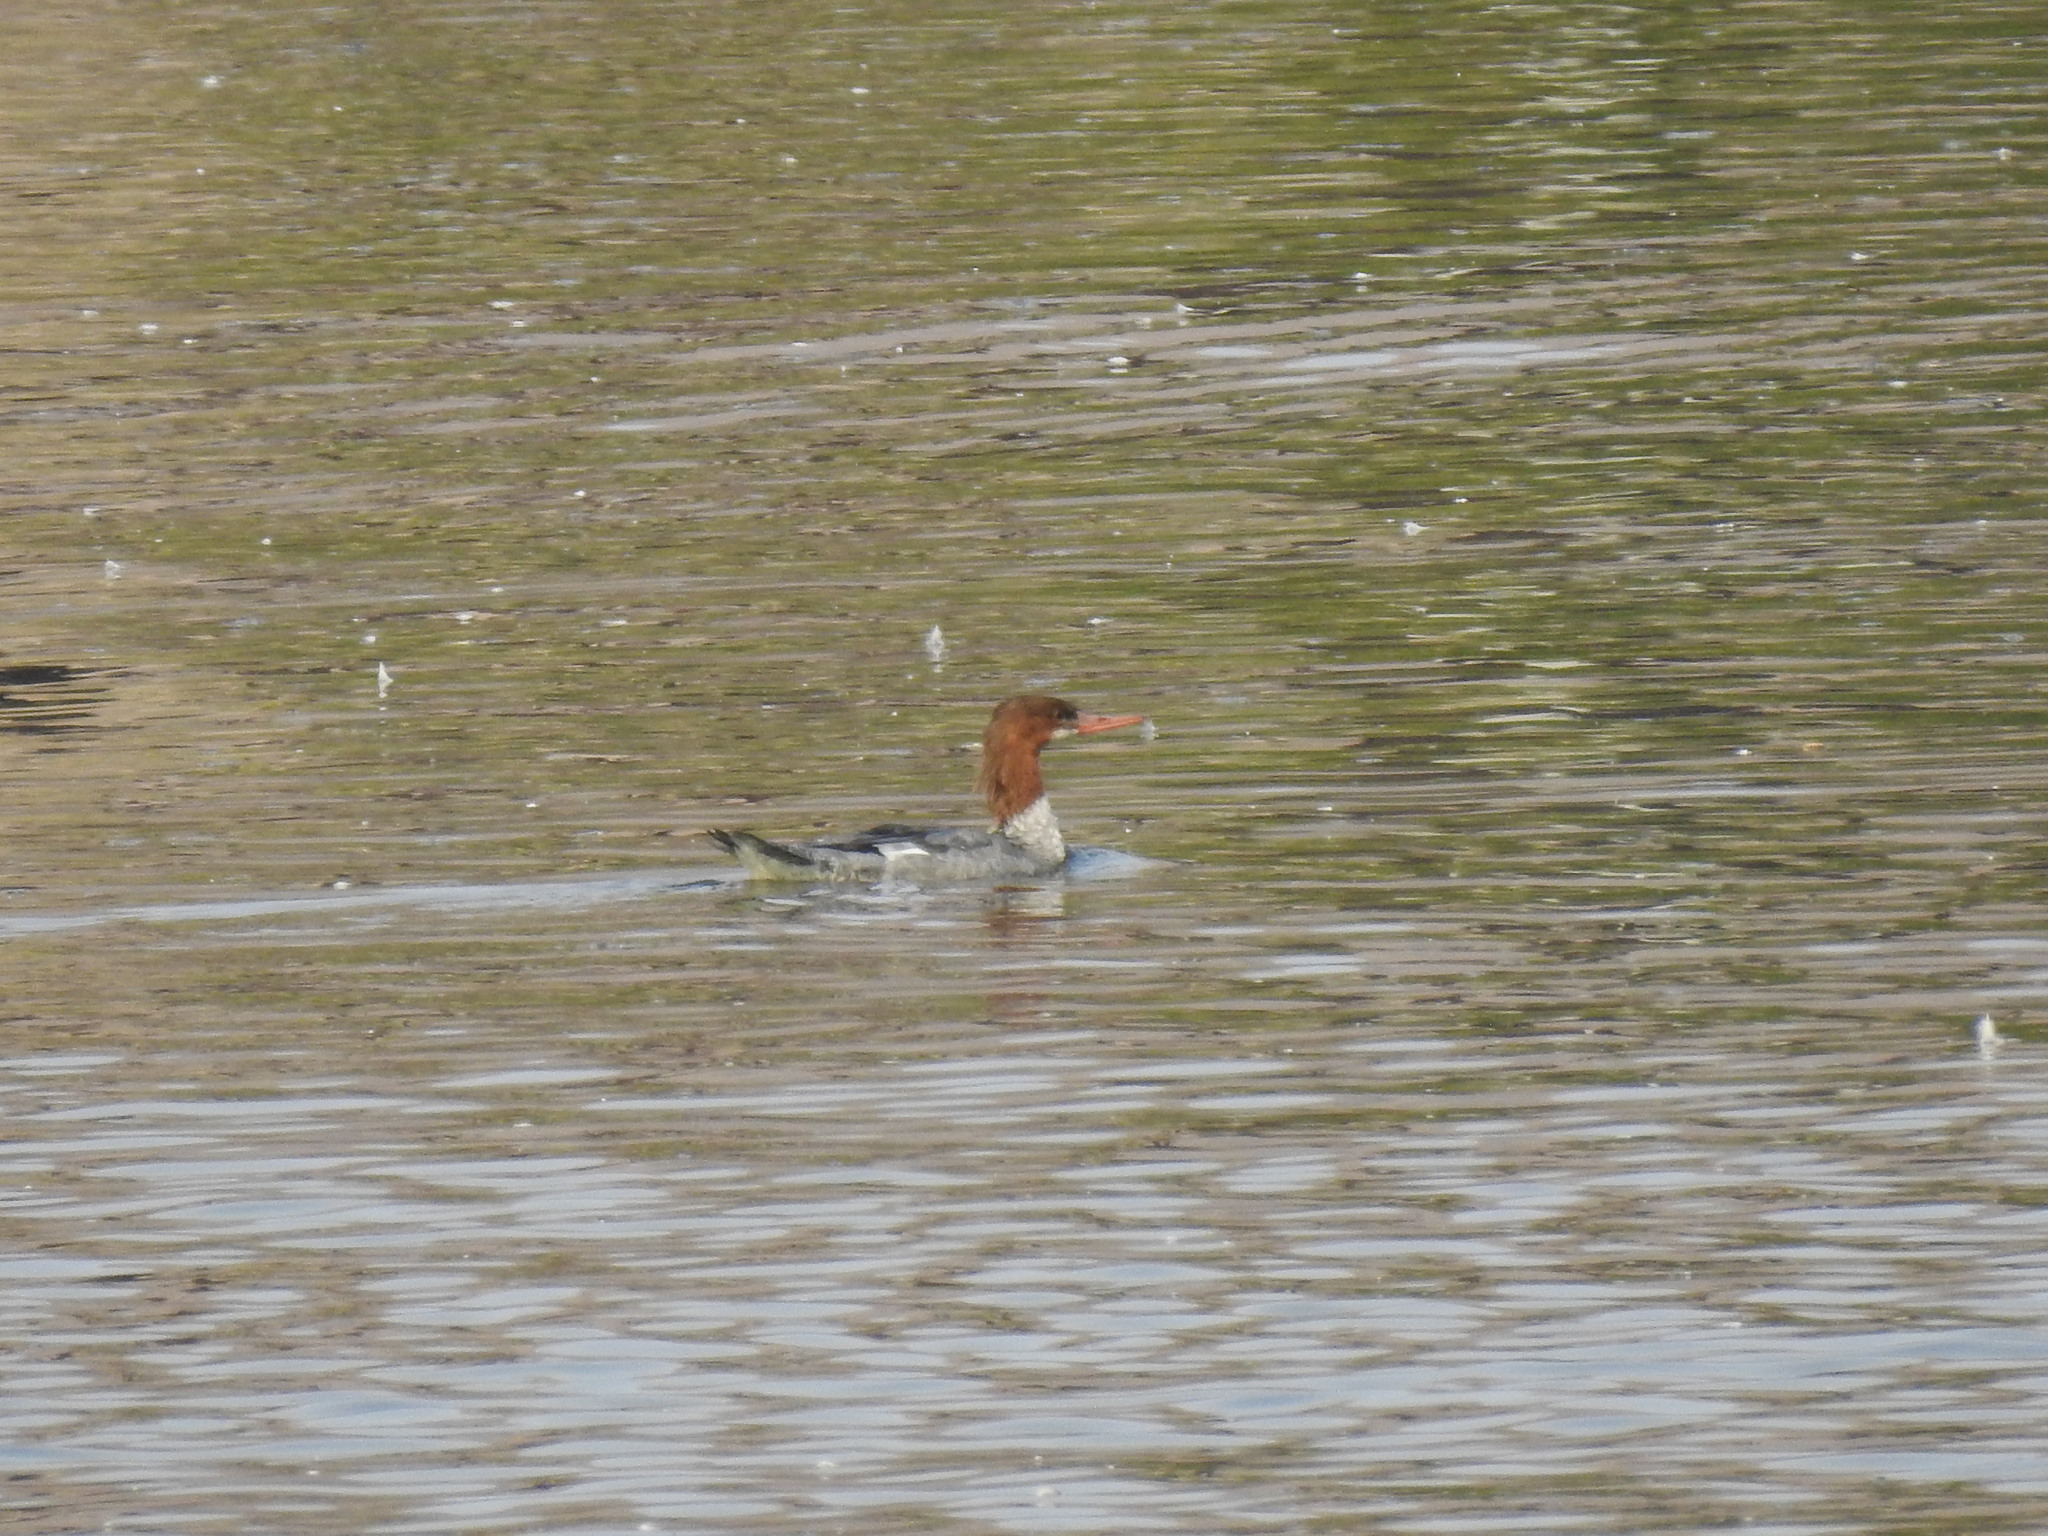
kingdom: Animalia
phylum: Chordata
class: Aves
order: Anseriformes
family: Anatidae
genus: Mergus
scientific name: Mergus merganser
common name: Common merganser
